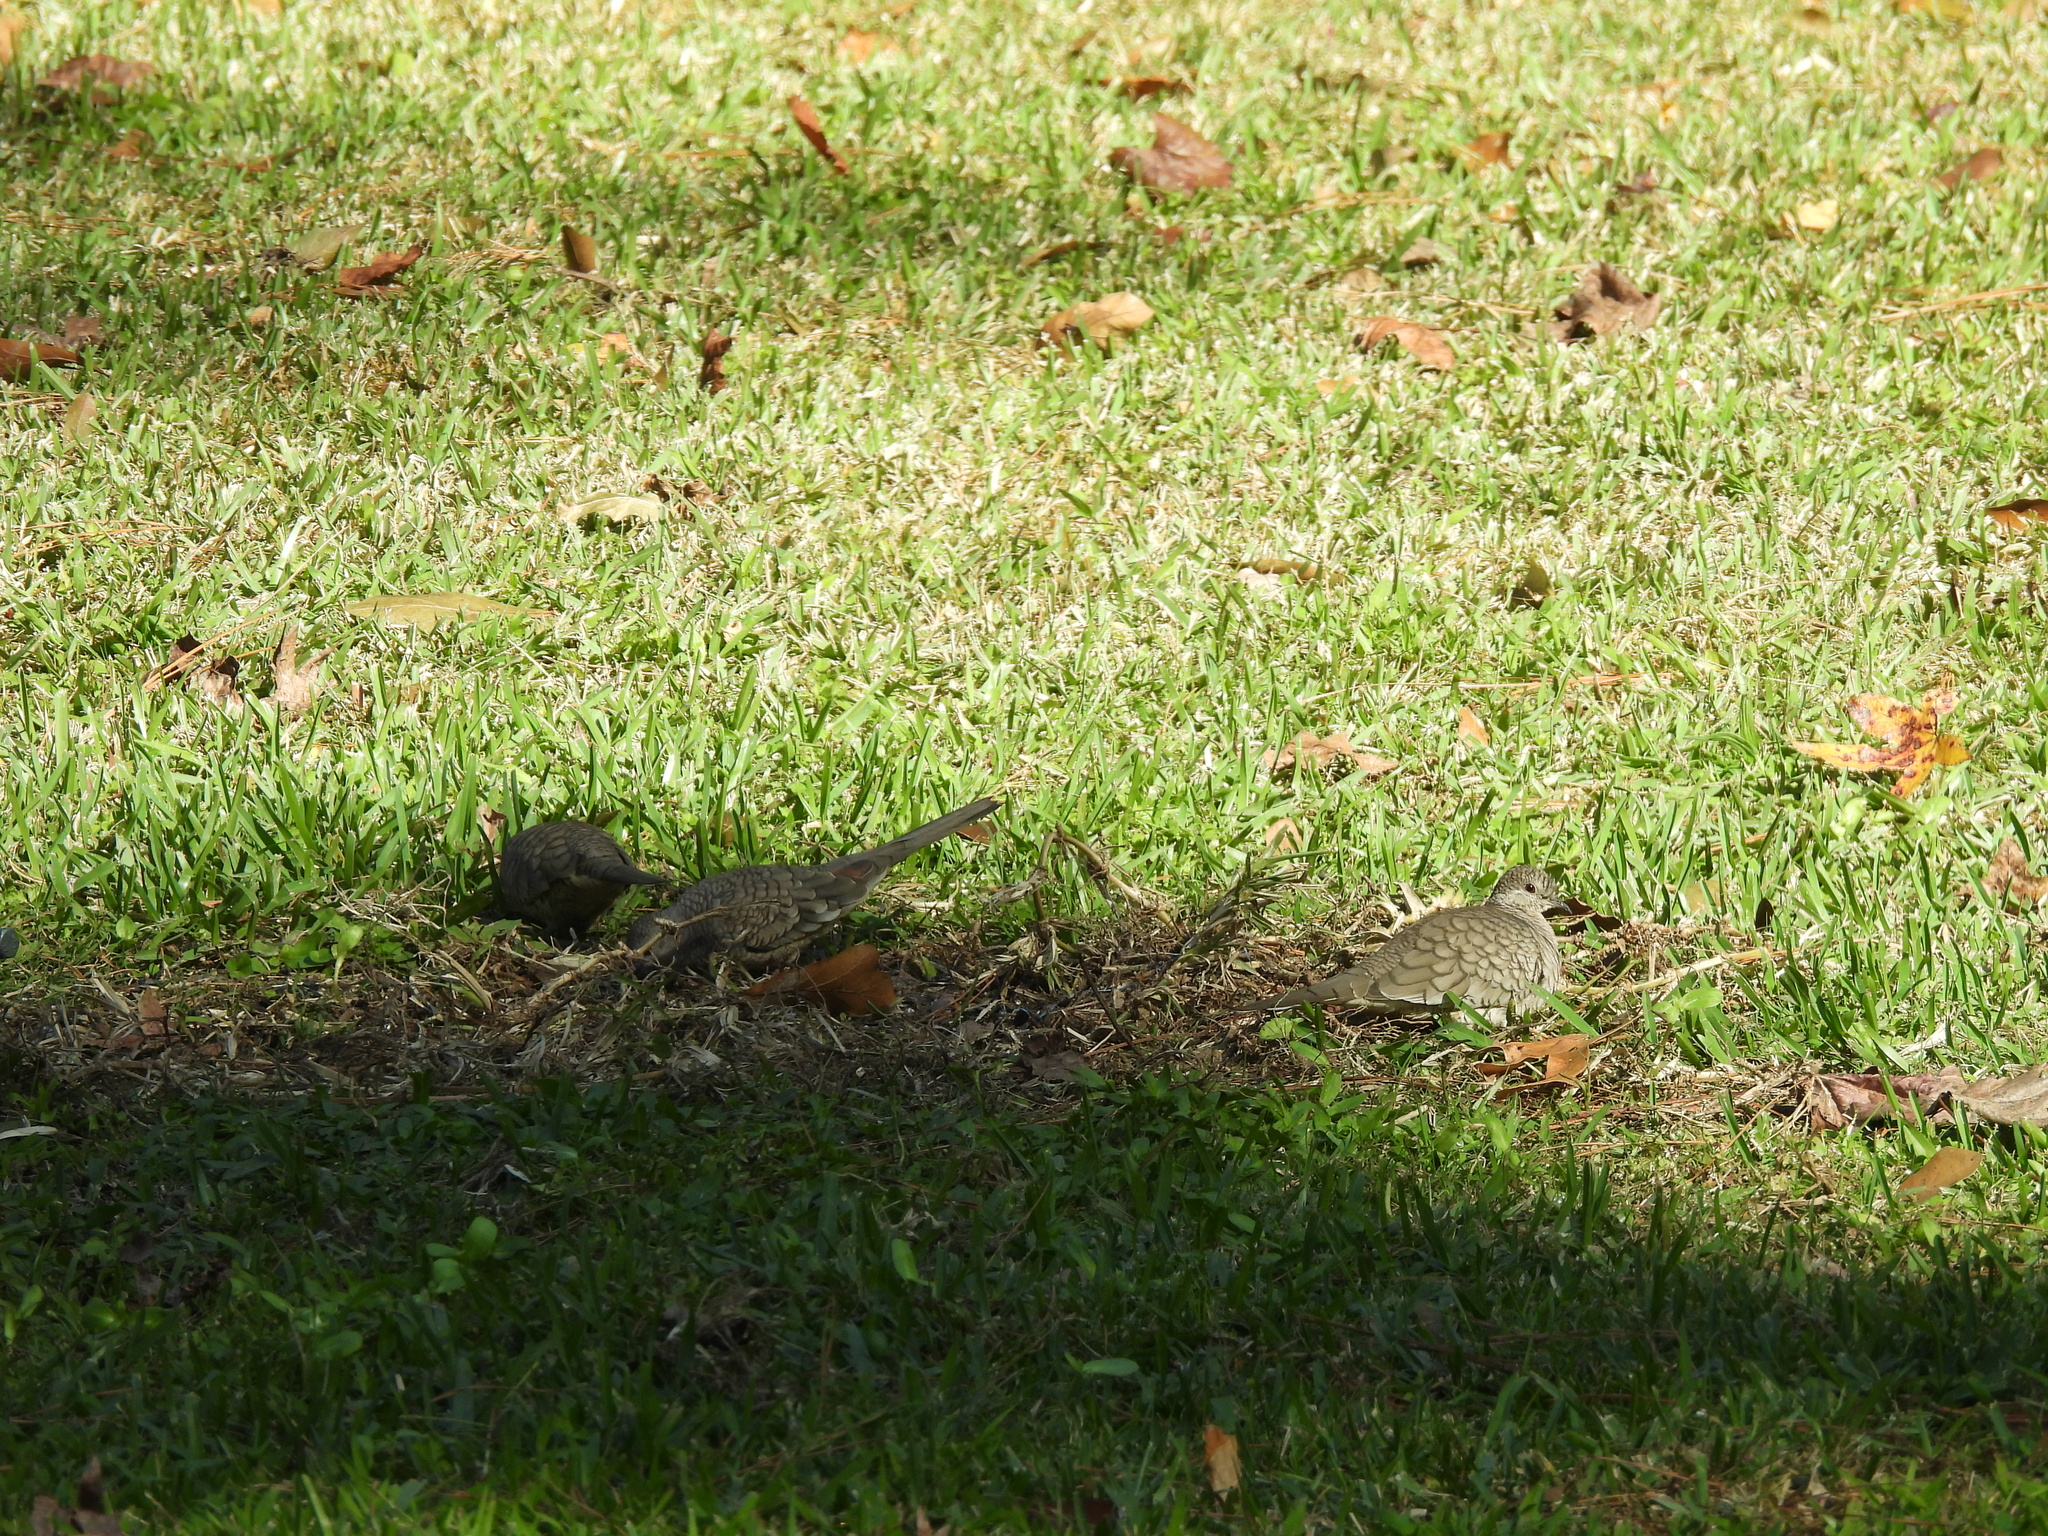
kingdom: Animalia
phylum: Chordata
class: Aves
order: Columbiformes
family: Columbidae
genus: Columbina
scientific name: Columbina inca
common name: Inca dove
